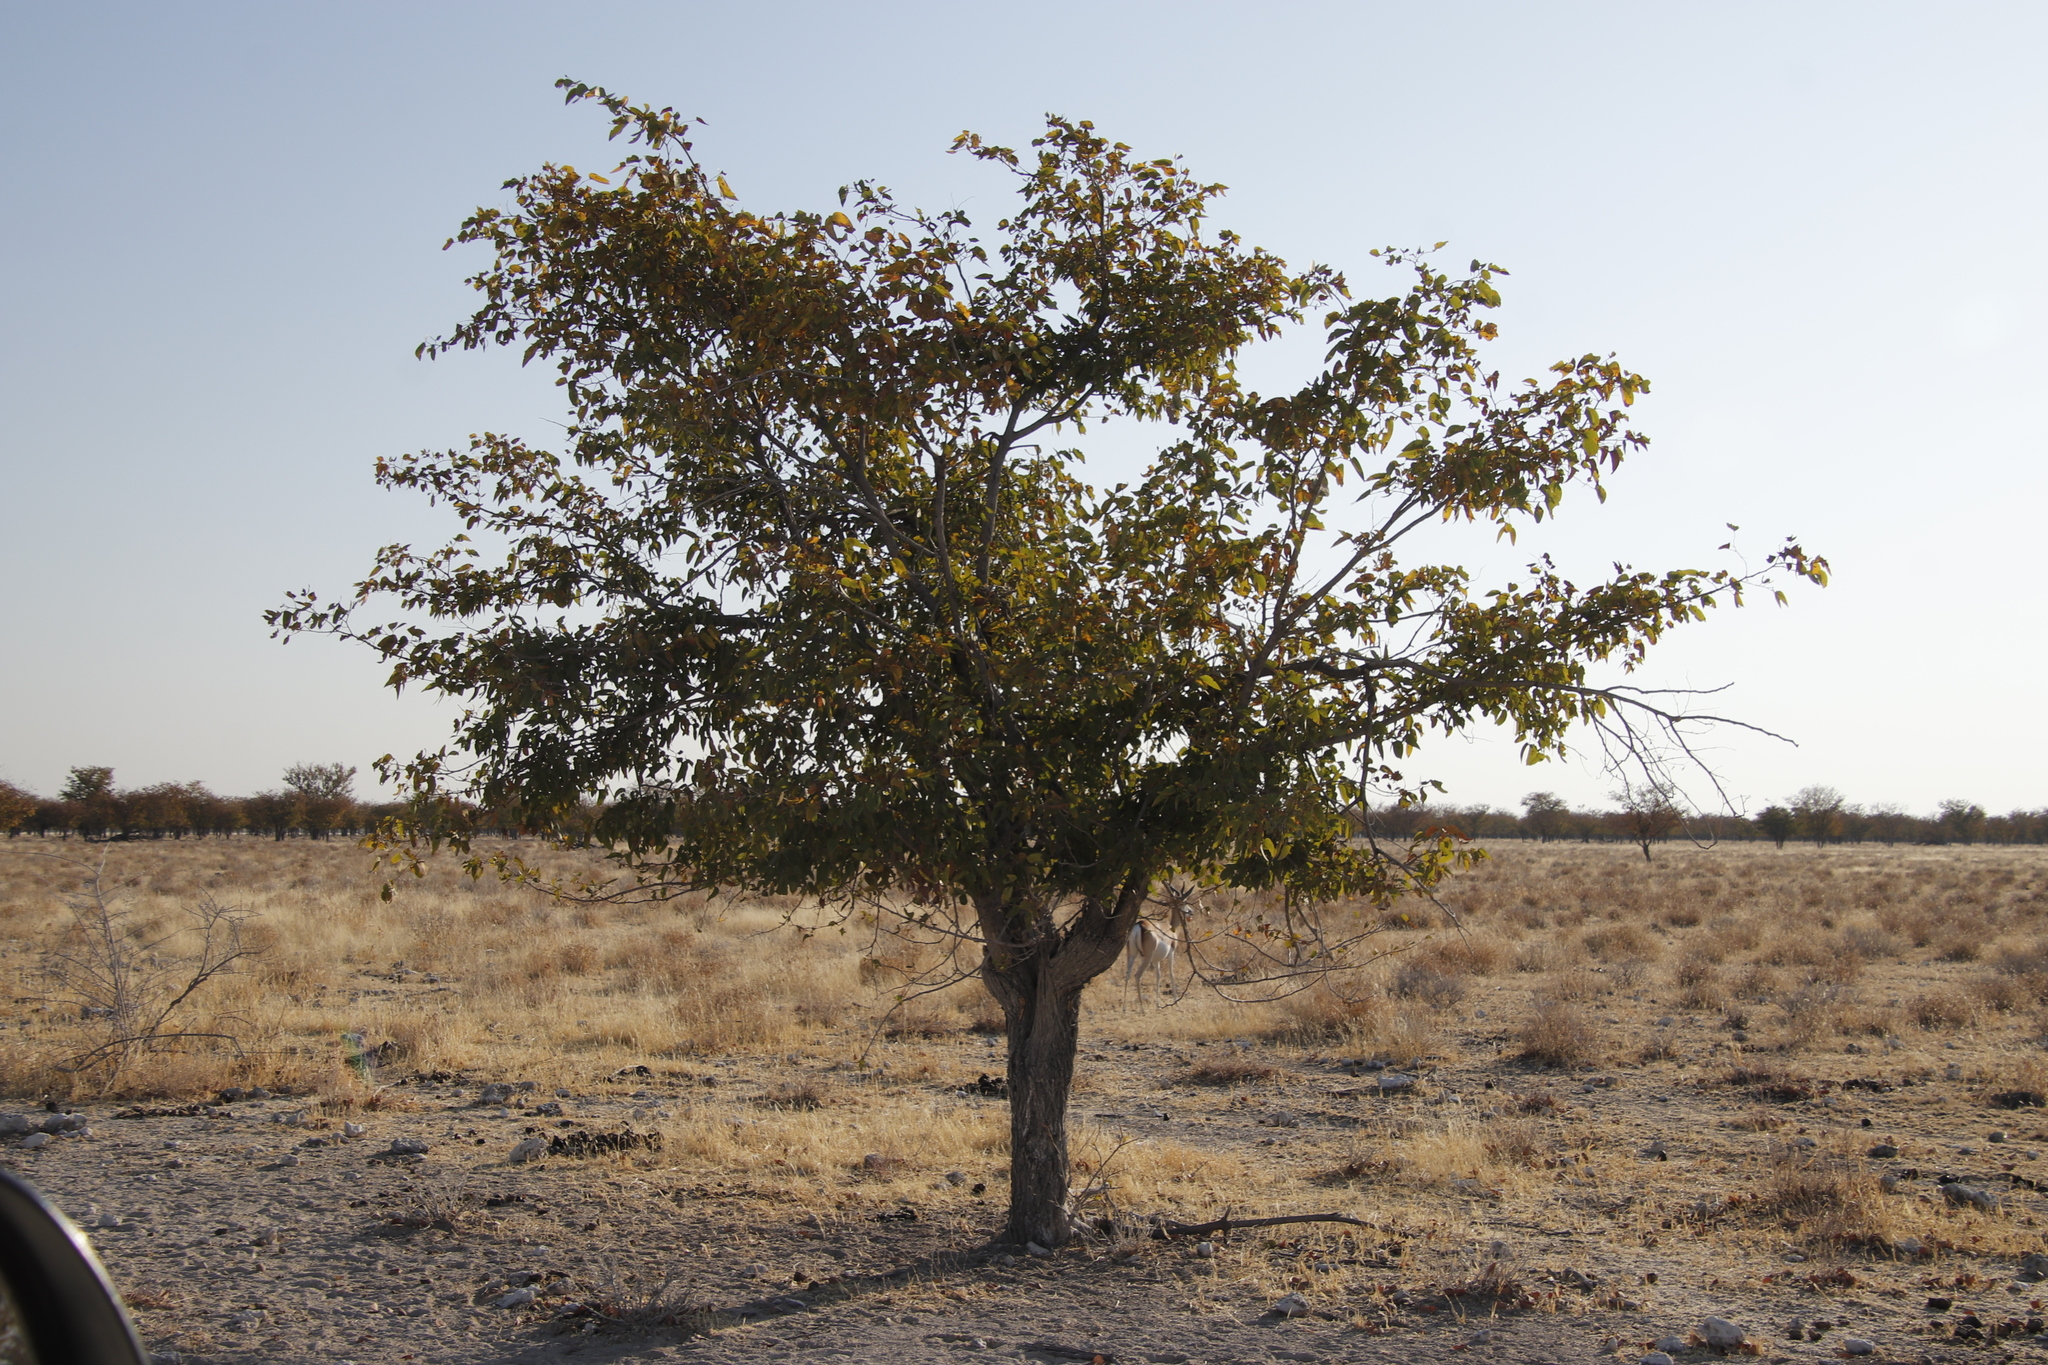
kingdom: Plantae
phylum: Tracheophyta
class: Magnoliopsida
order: Fabales
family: Fabaceae
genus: Colophospermum
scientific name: Colophospermum mopane
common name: Mopane
